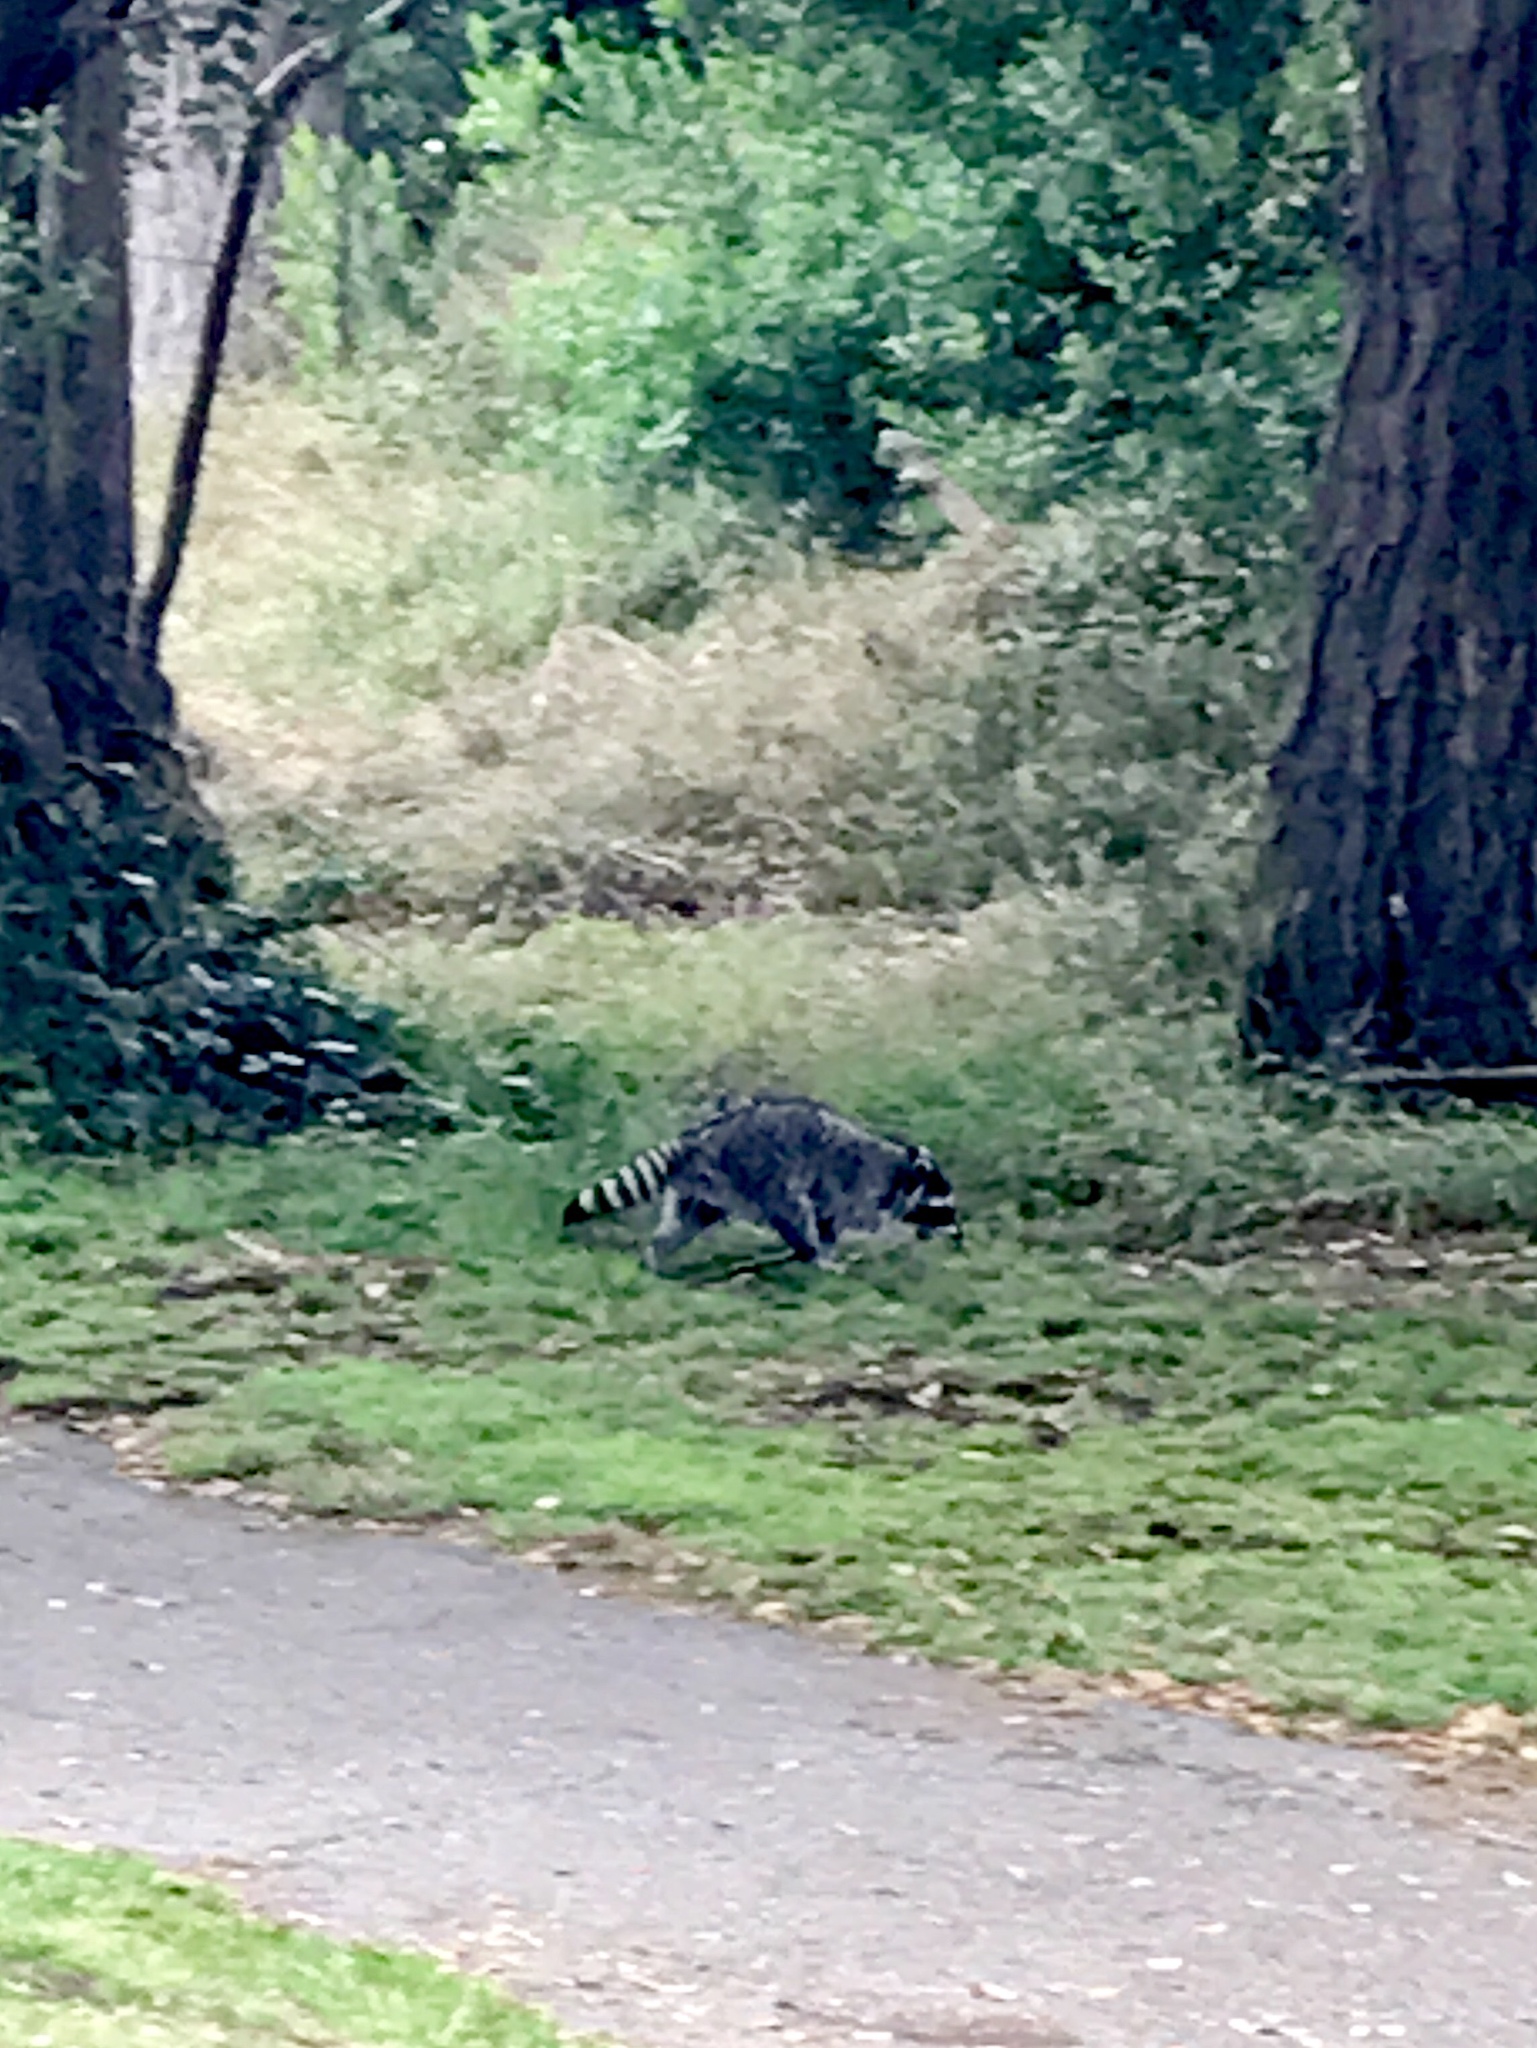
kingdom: Animalia
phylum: Chordata
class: Mammalia
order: Carnivora
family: Procyonidae
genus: Procyon
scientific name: Procyon lotor
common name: Raccoon
